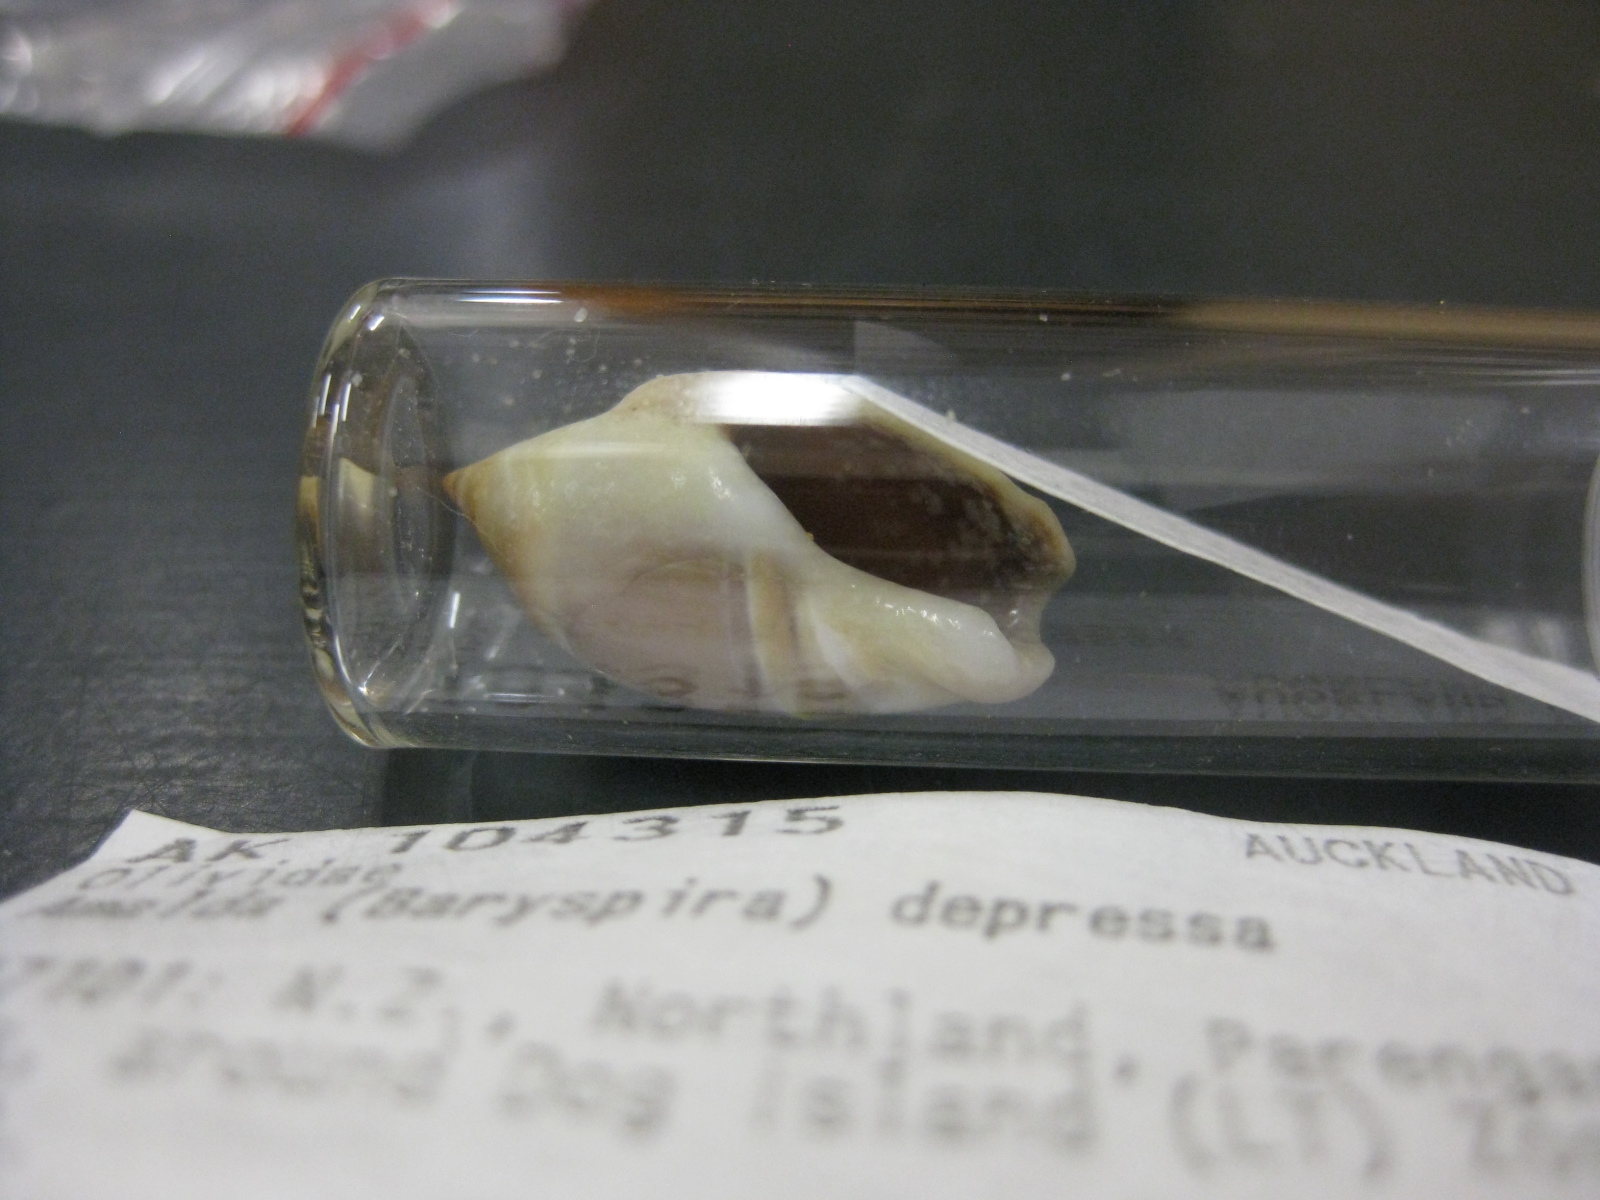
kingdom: Animalia
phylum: Mollusca
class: Gastropoda
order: Neogastropoda
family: Ancillariidae
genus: Amalda
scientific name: Amalda depressa
